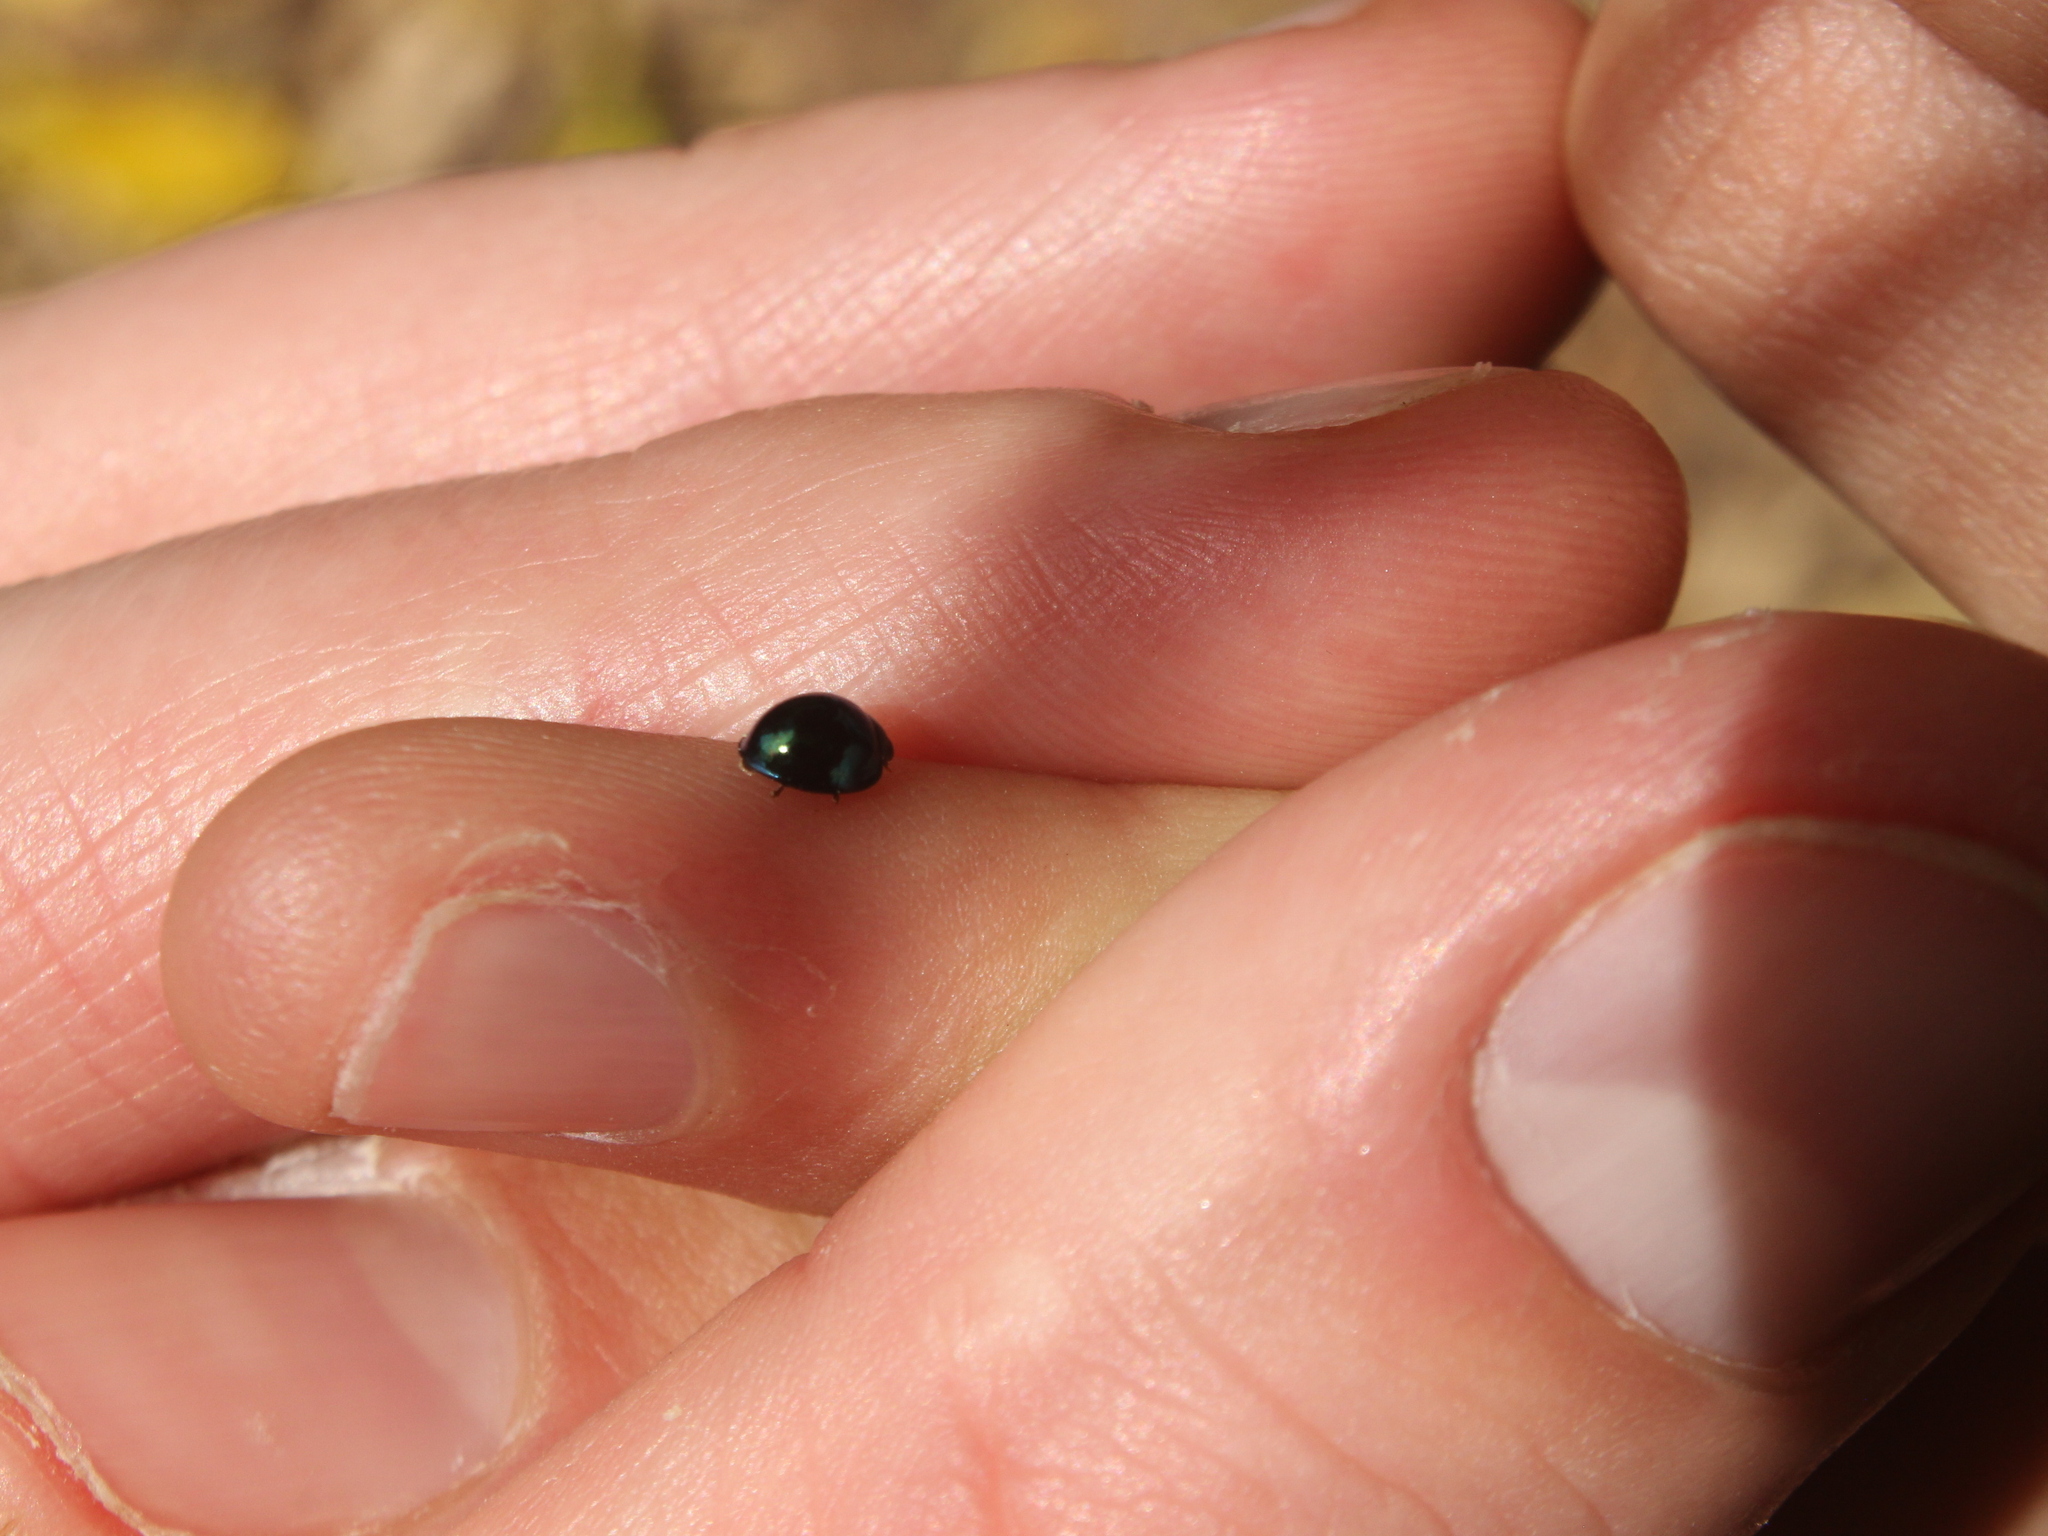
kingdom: Animalia
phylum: Arthropoda
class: Insecta
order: Coleoptera
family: Coccinellidae
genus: Halmus
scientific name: Halmus chalybeus
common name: Steel blue ladybird beetle
